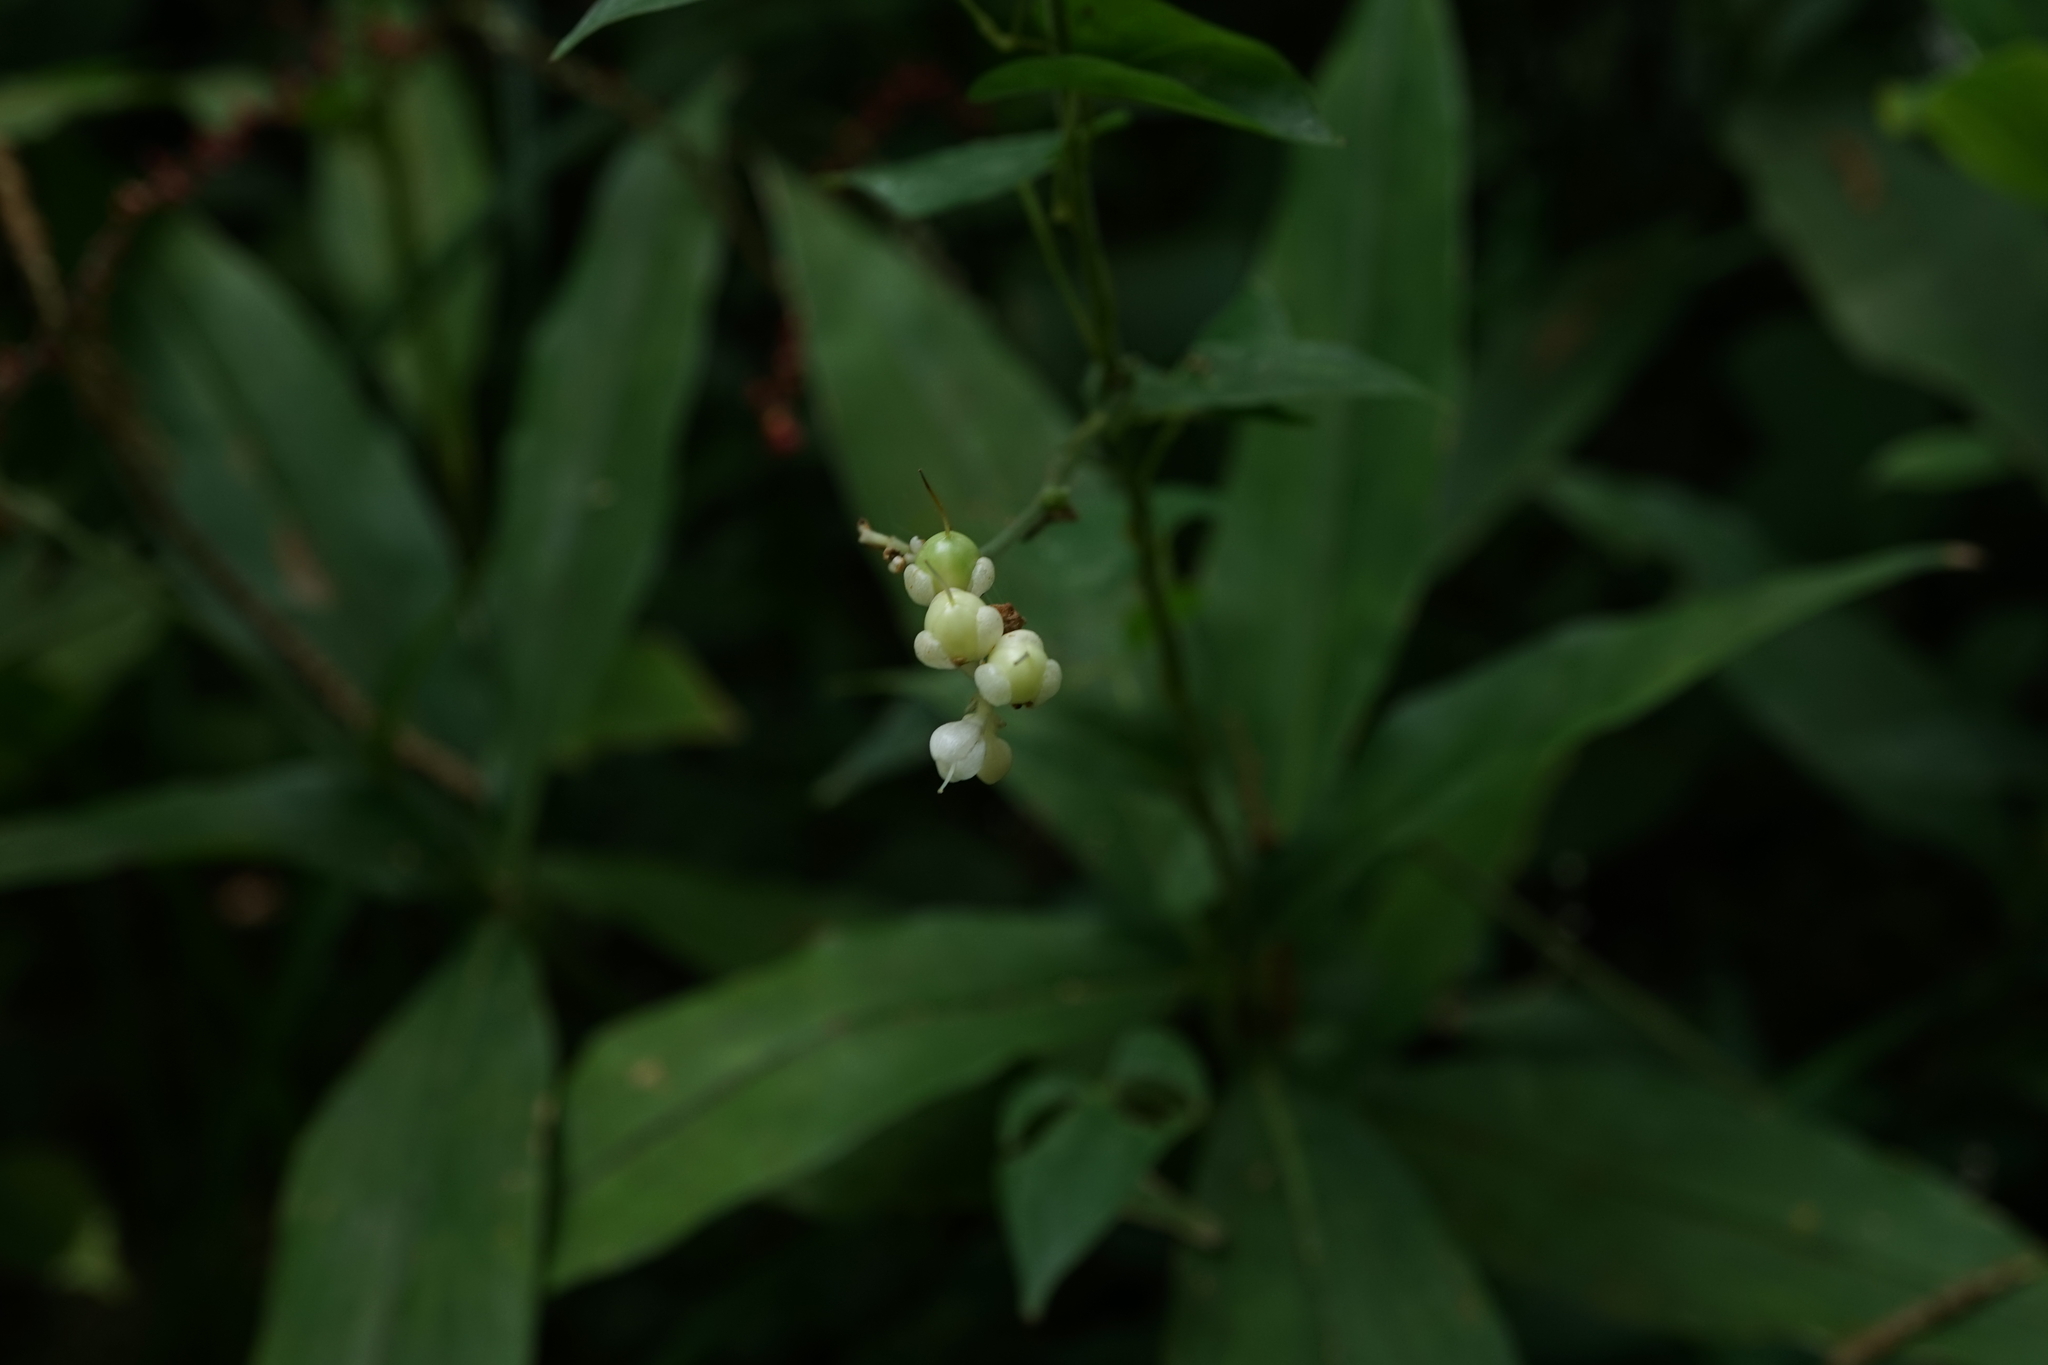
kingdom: Plantae
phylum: Tracheophyta
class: Liliopsida
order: Commelinales
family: Commelinaceae
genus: Pollia
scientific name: Pollia japonica
